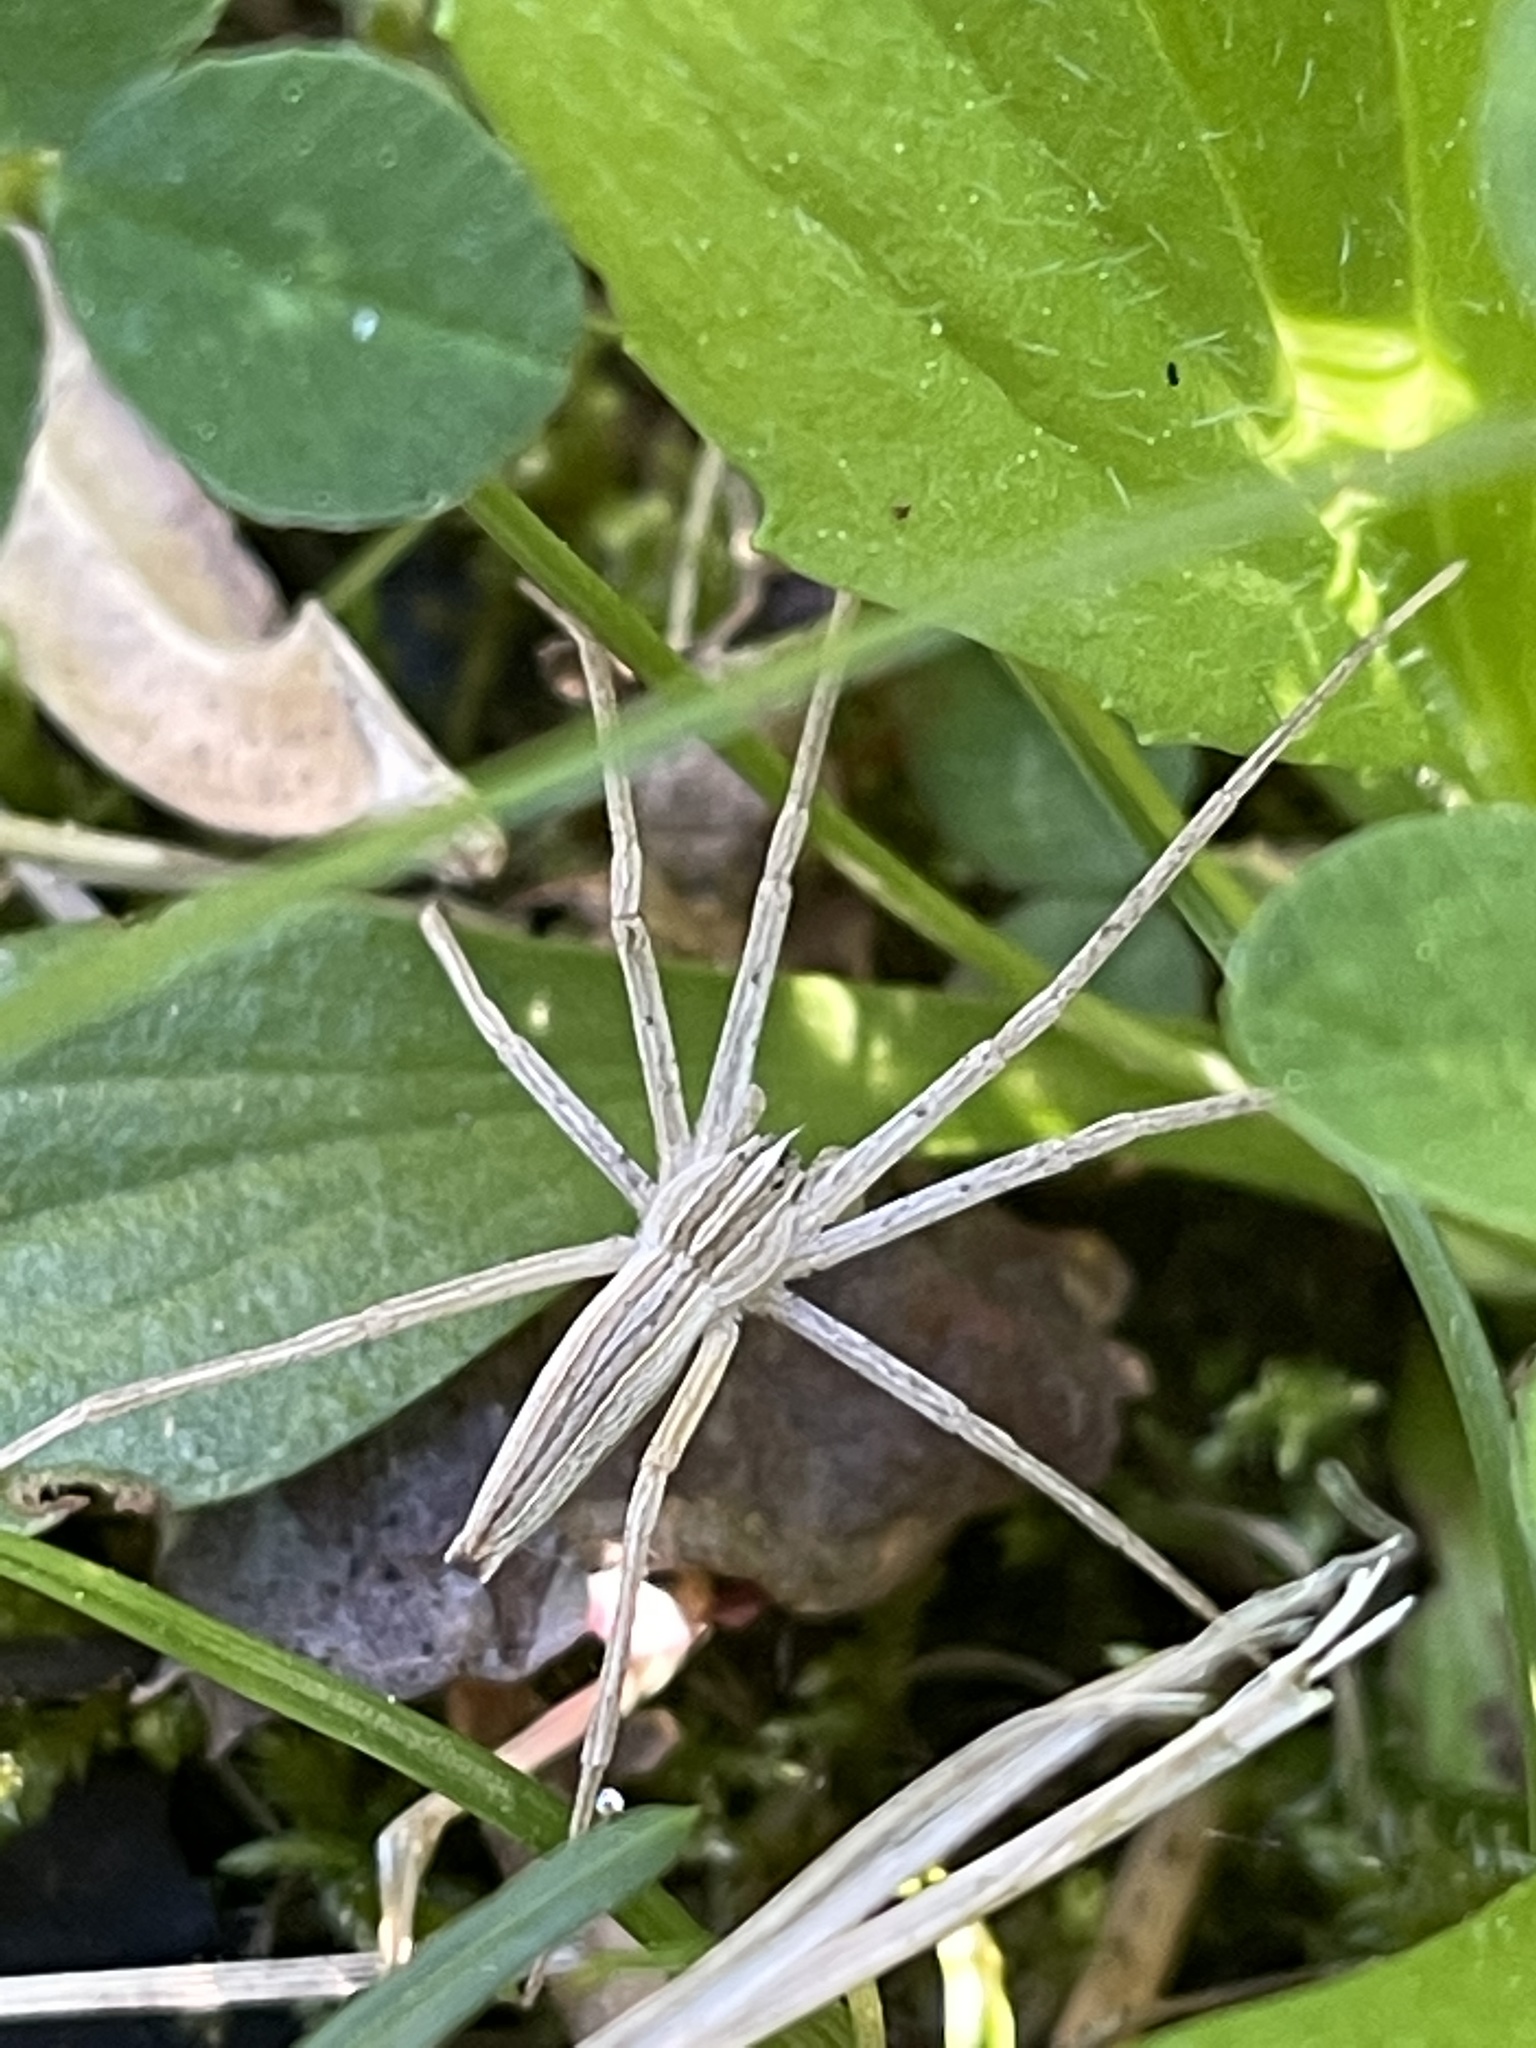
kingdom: Animalia
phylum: Arthropoda
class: Arachnida
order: Araneae
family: Pisauridae
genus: Pisaurina
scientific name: Pisaurina dubia
